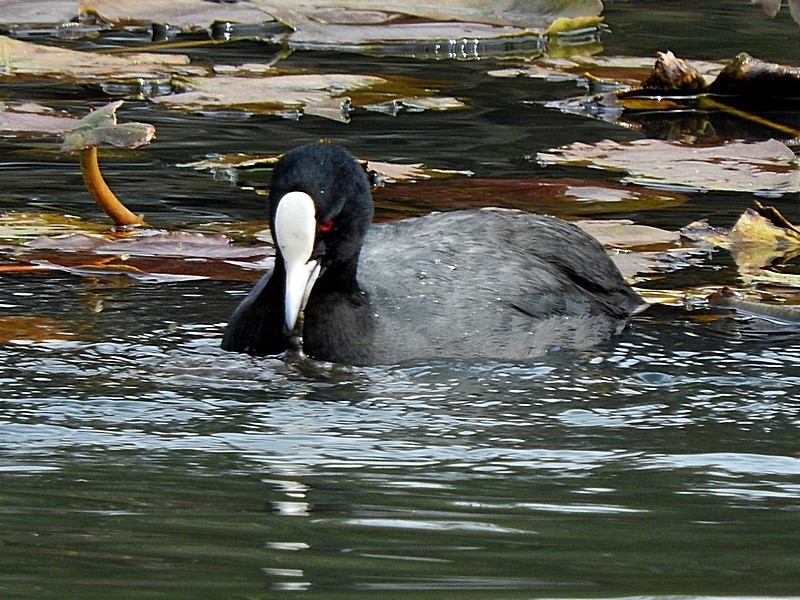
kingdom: Animalia
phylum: Chordata
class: Aves
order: Gruiformes
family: Rallidae
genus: Fulica
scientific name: Fulica atra
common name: Eurasian coot
